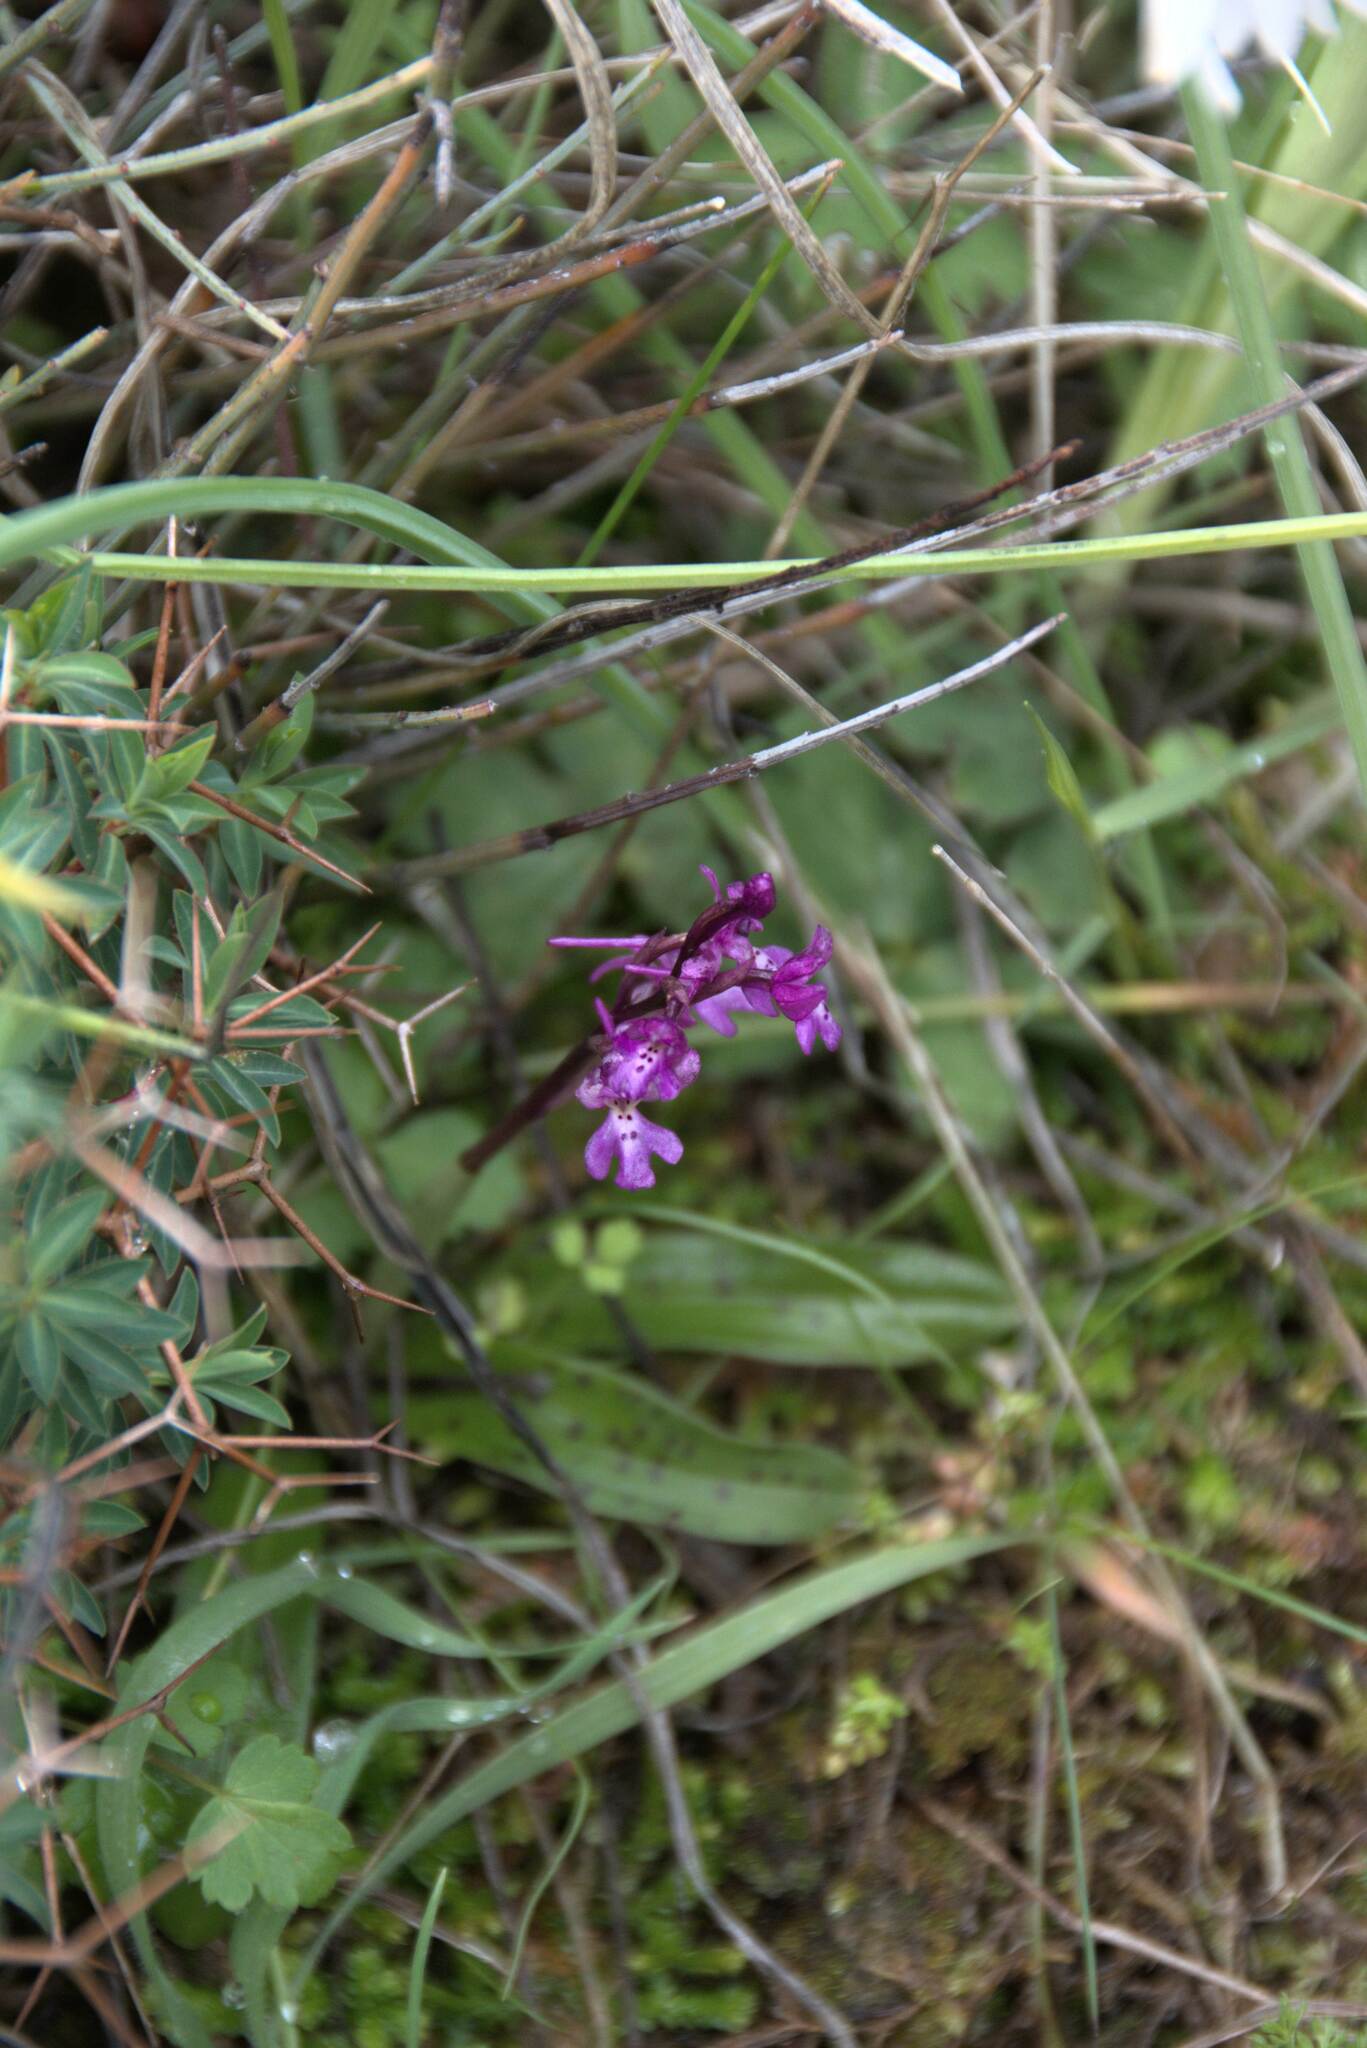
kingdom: Plantae
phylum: Tracheophyta
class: Liliopsida
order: Asparagales
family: Orchidaceae
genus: Orchis
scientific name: Orchis quadripunctata
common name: Four-spotted orchid
